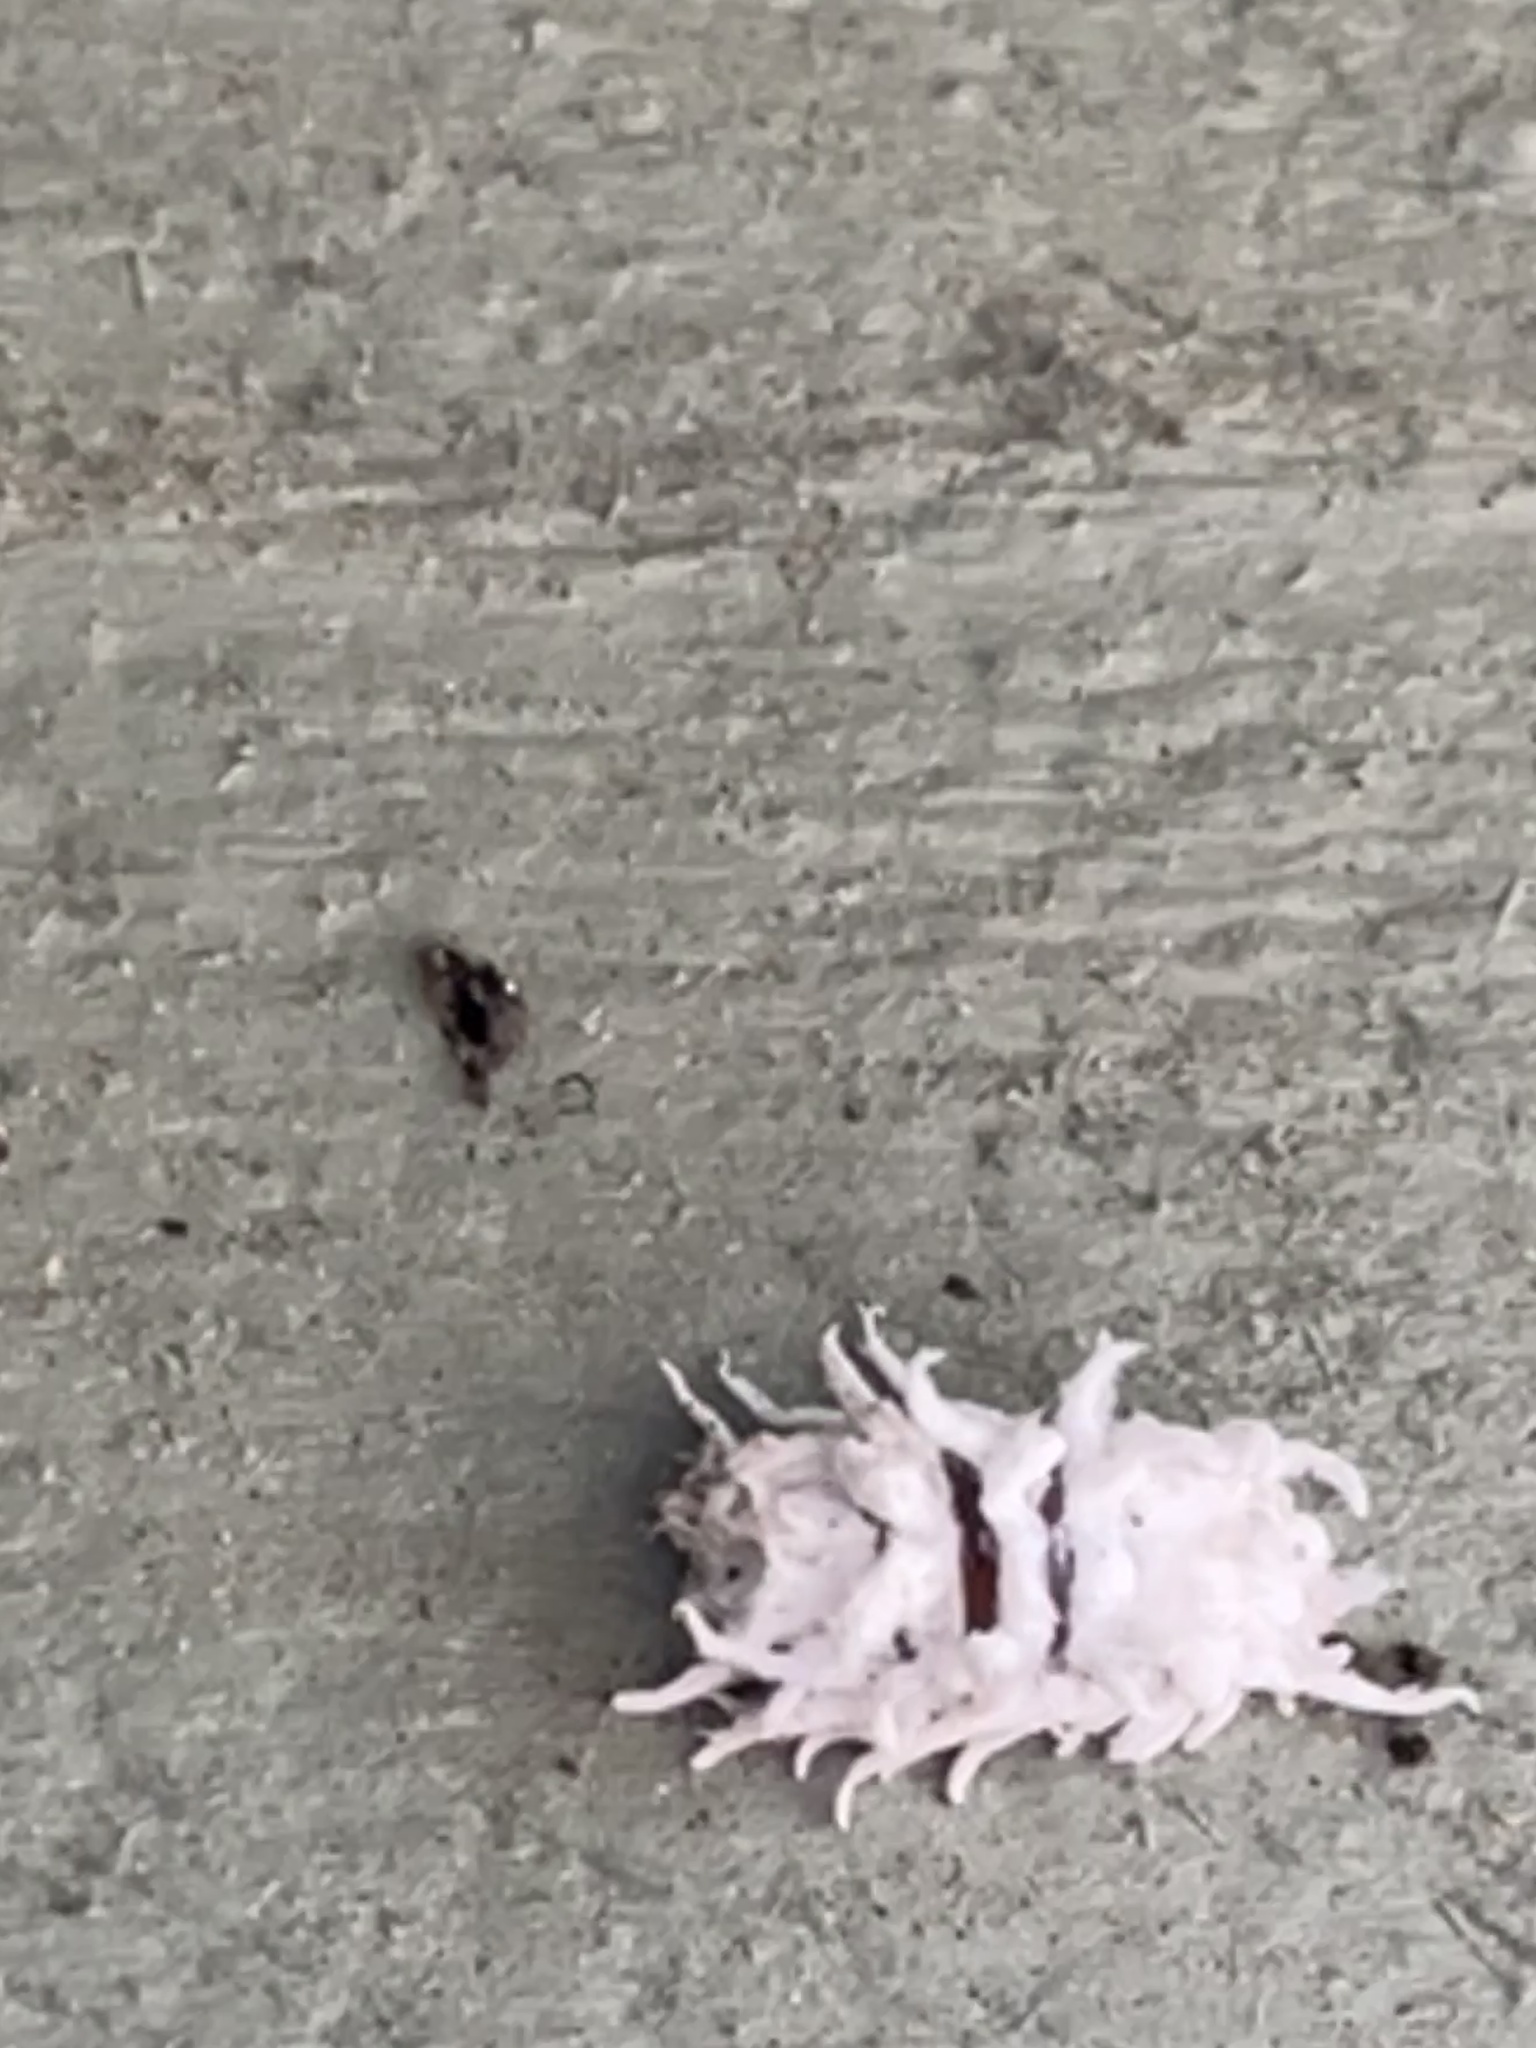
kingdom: Animalia
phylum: Arthropoda
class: Insecta
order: Coleoptera
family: Coccinellidae
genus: Cryptolaemus
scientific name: Cryptolaemus montrouzieri
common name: Mealybug destroyer
